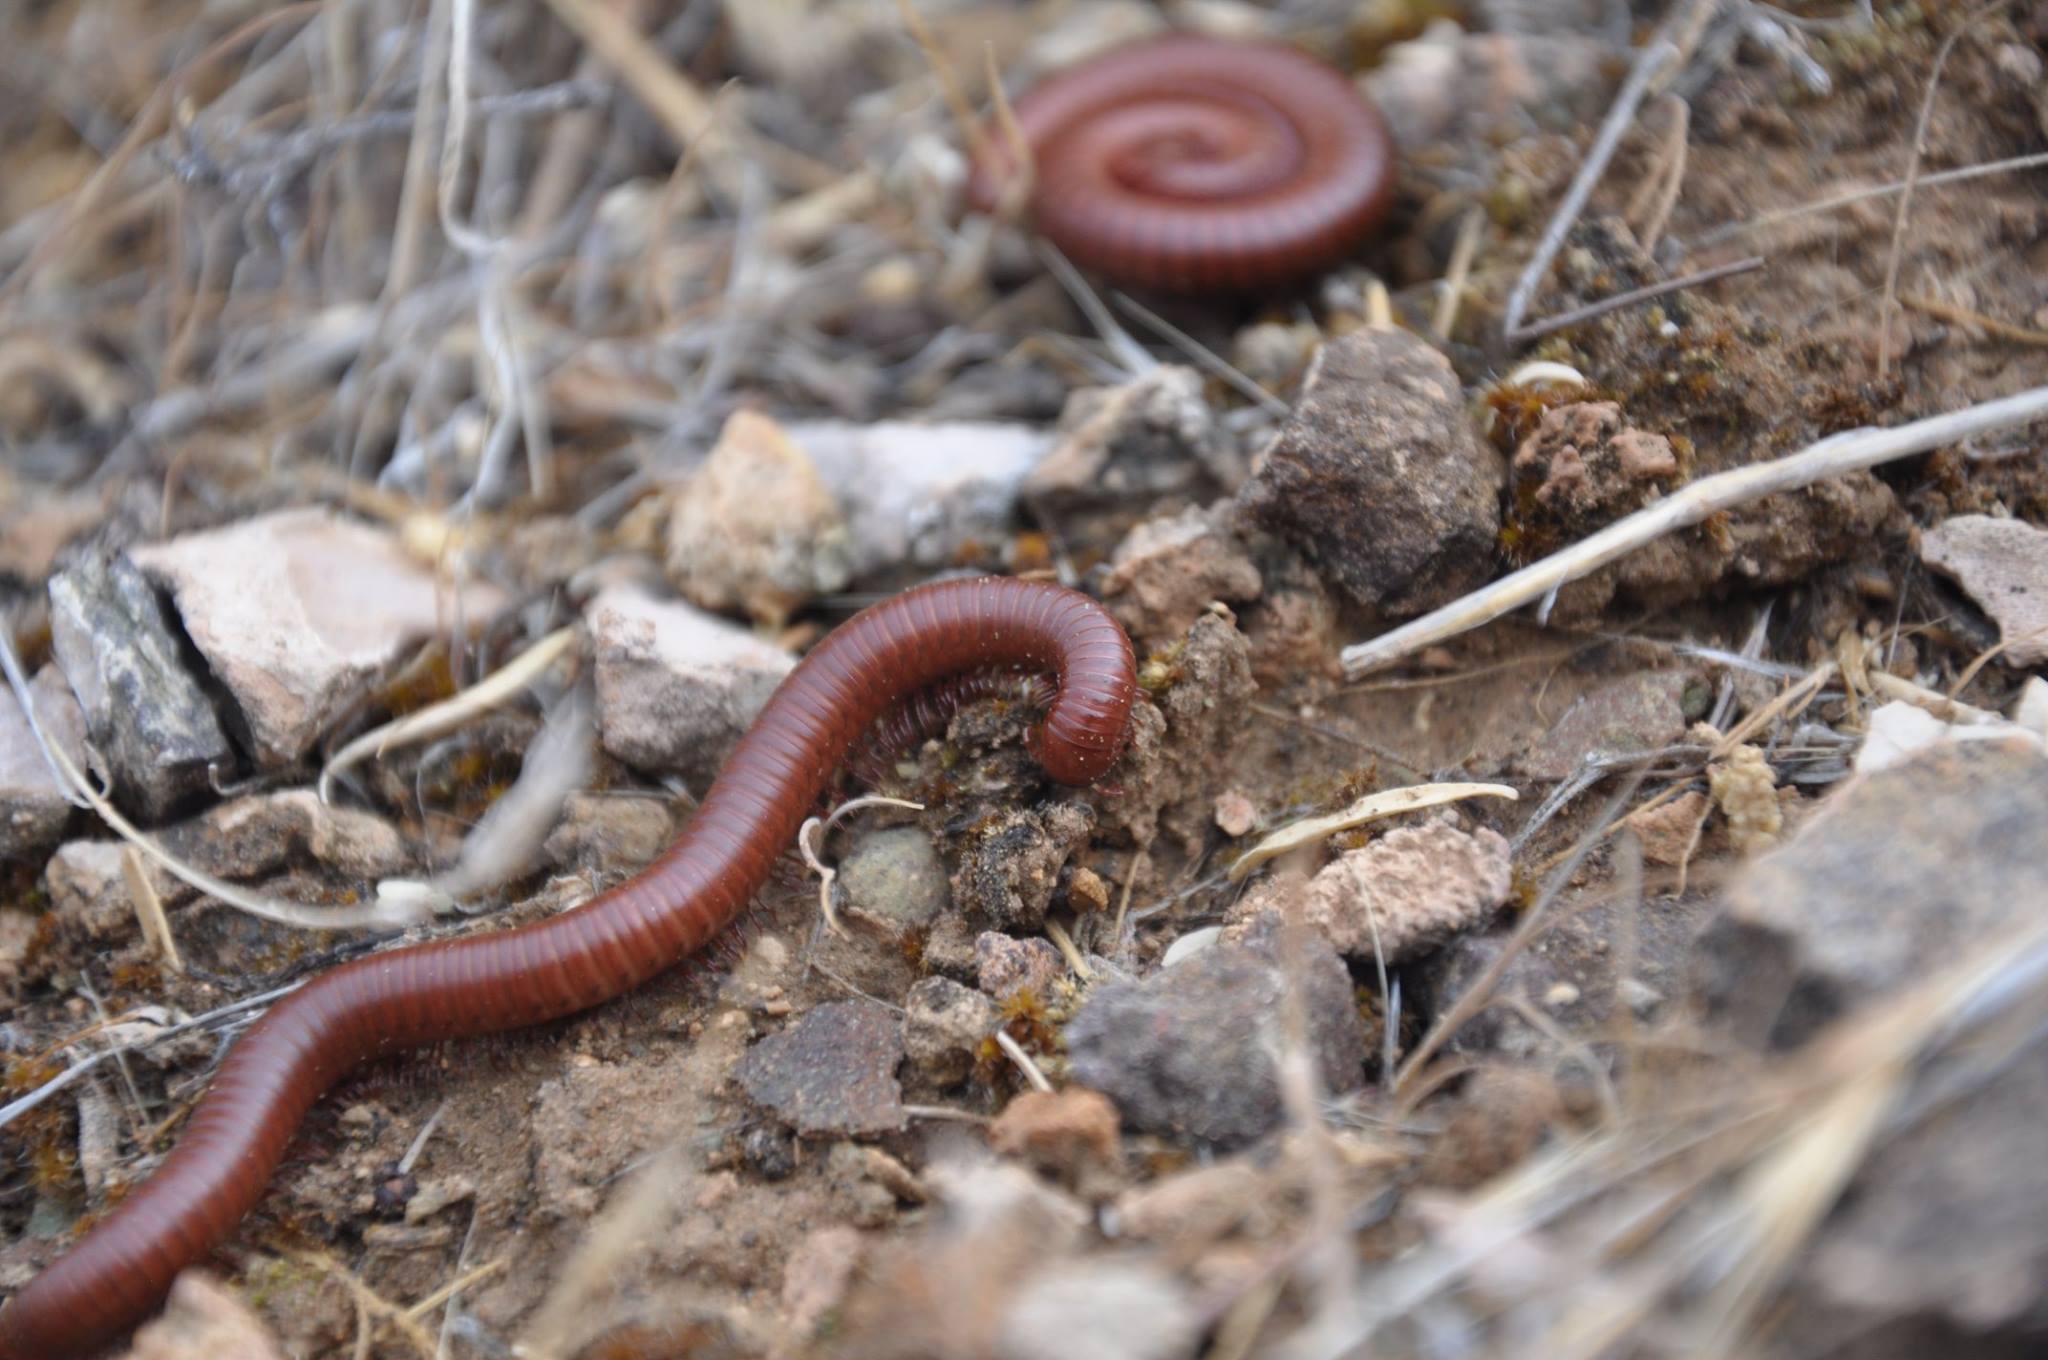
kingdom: Animalia
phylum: Arthropoda
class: Diplopoda
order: Spirostreptida
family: Spirostreptidae
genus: Orthoporus
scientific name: Orthoporus ornatus
